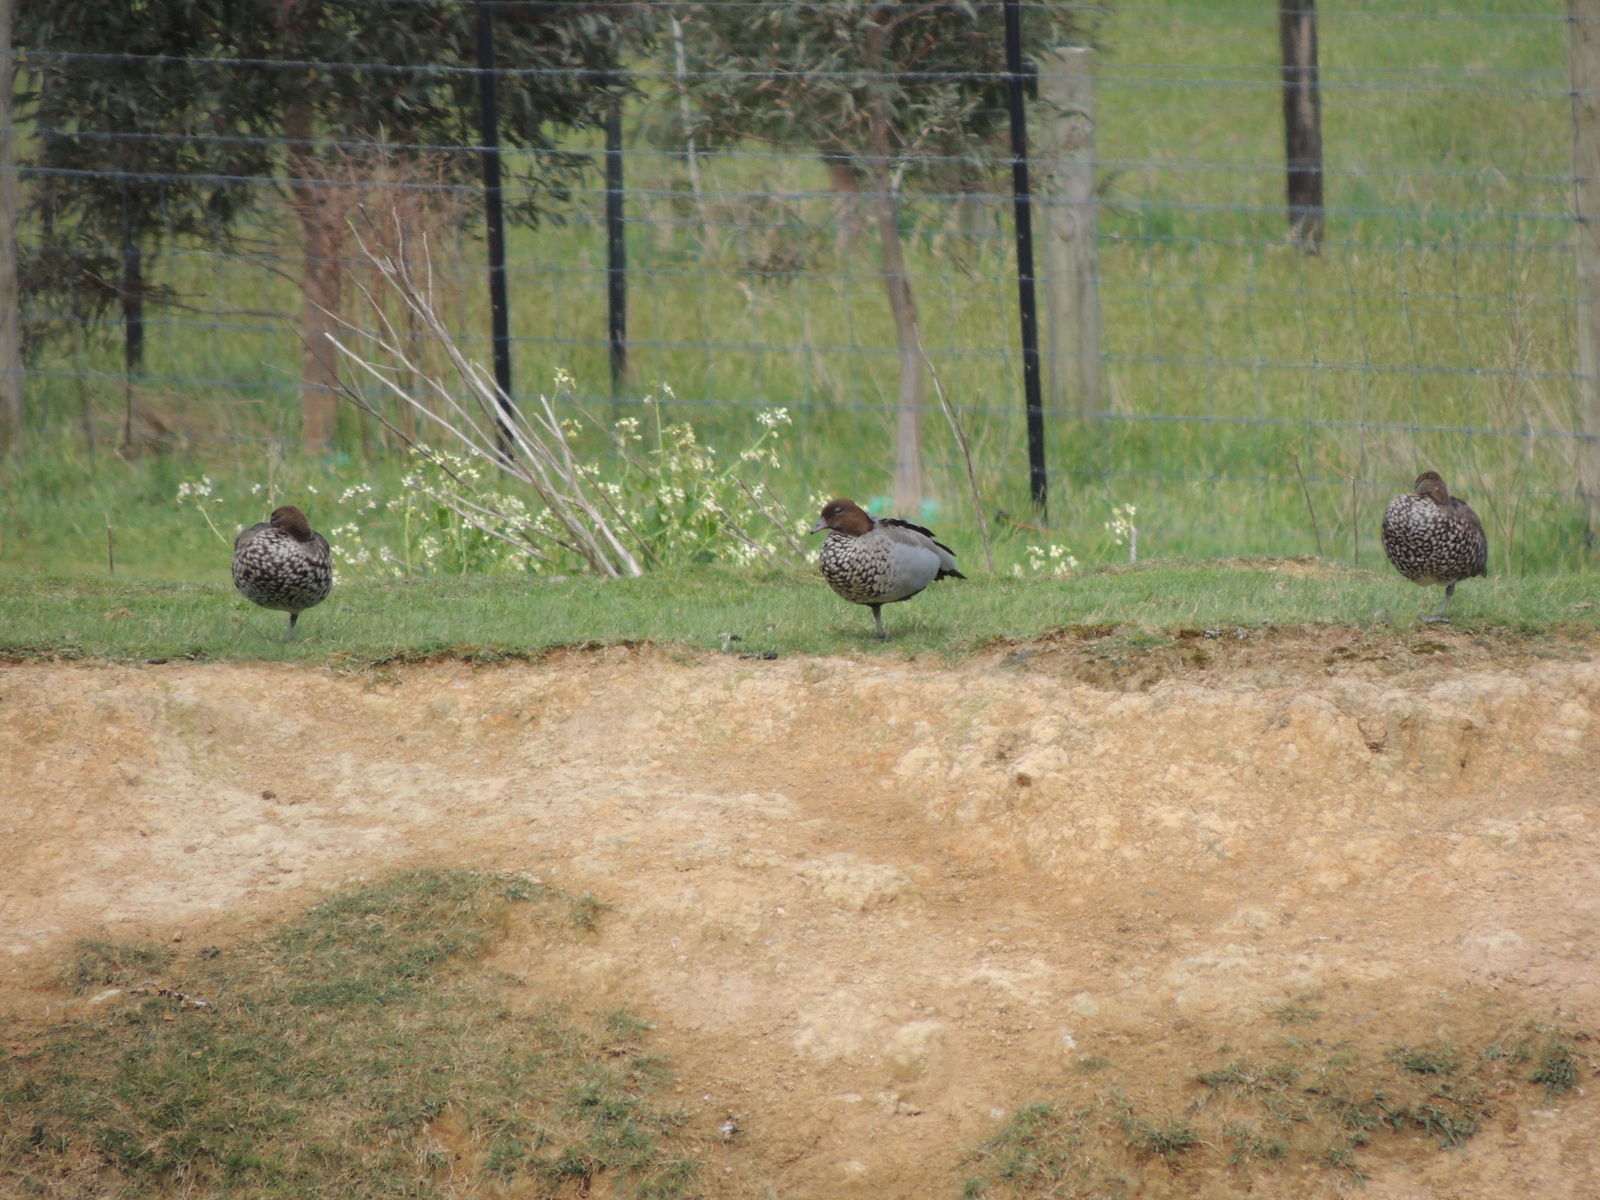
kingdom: Animalia
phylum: Chordata
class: Aves
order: Anseriformes
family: Anatidae
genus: Chenonetta
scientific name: Chenonetta jubata
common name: Maned duck
